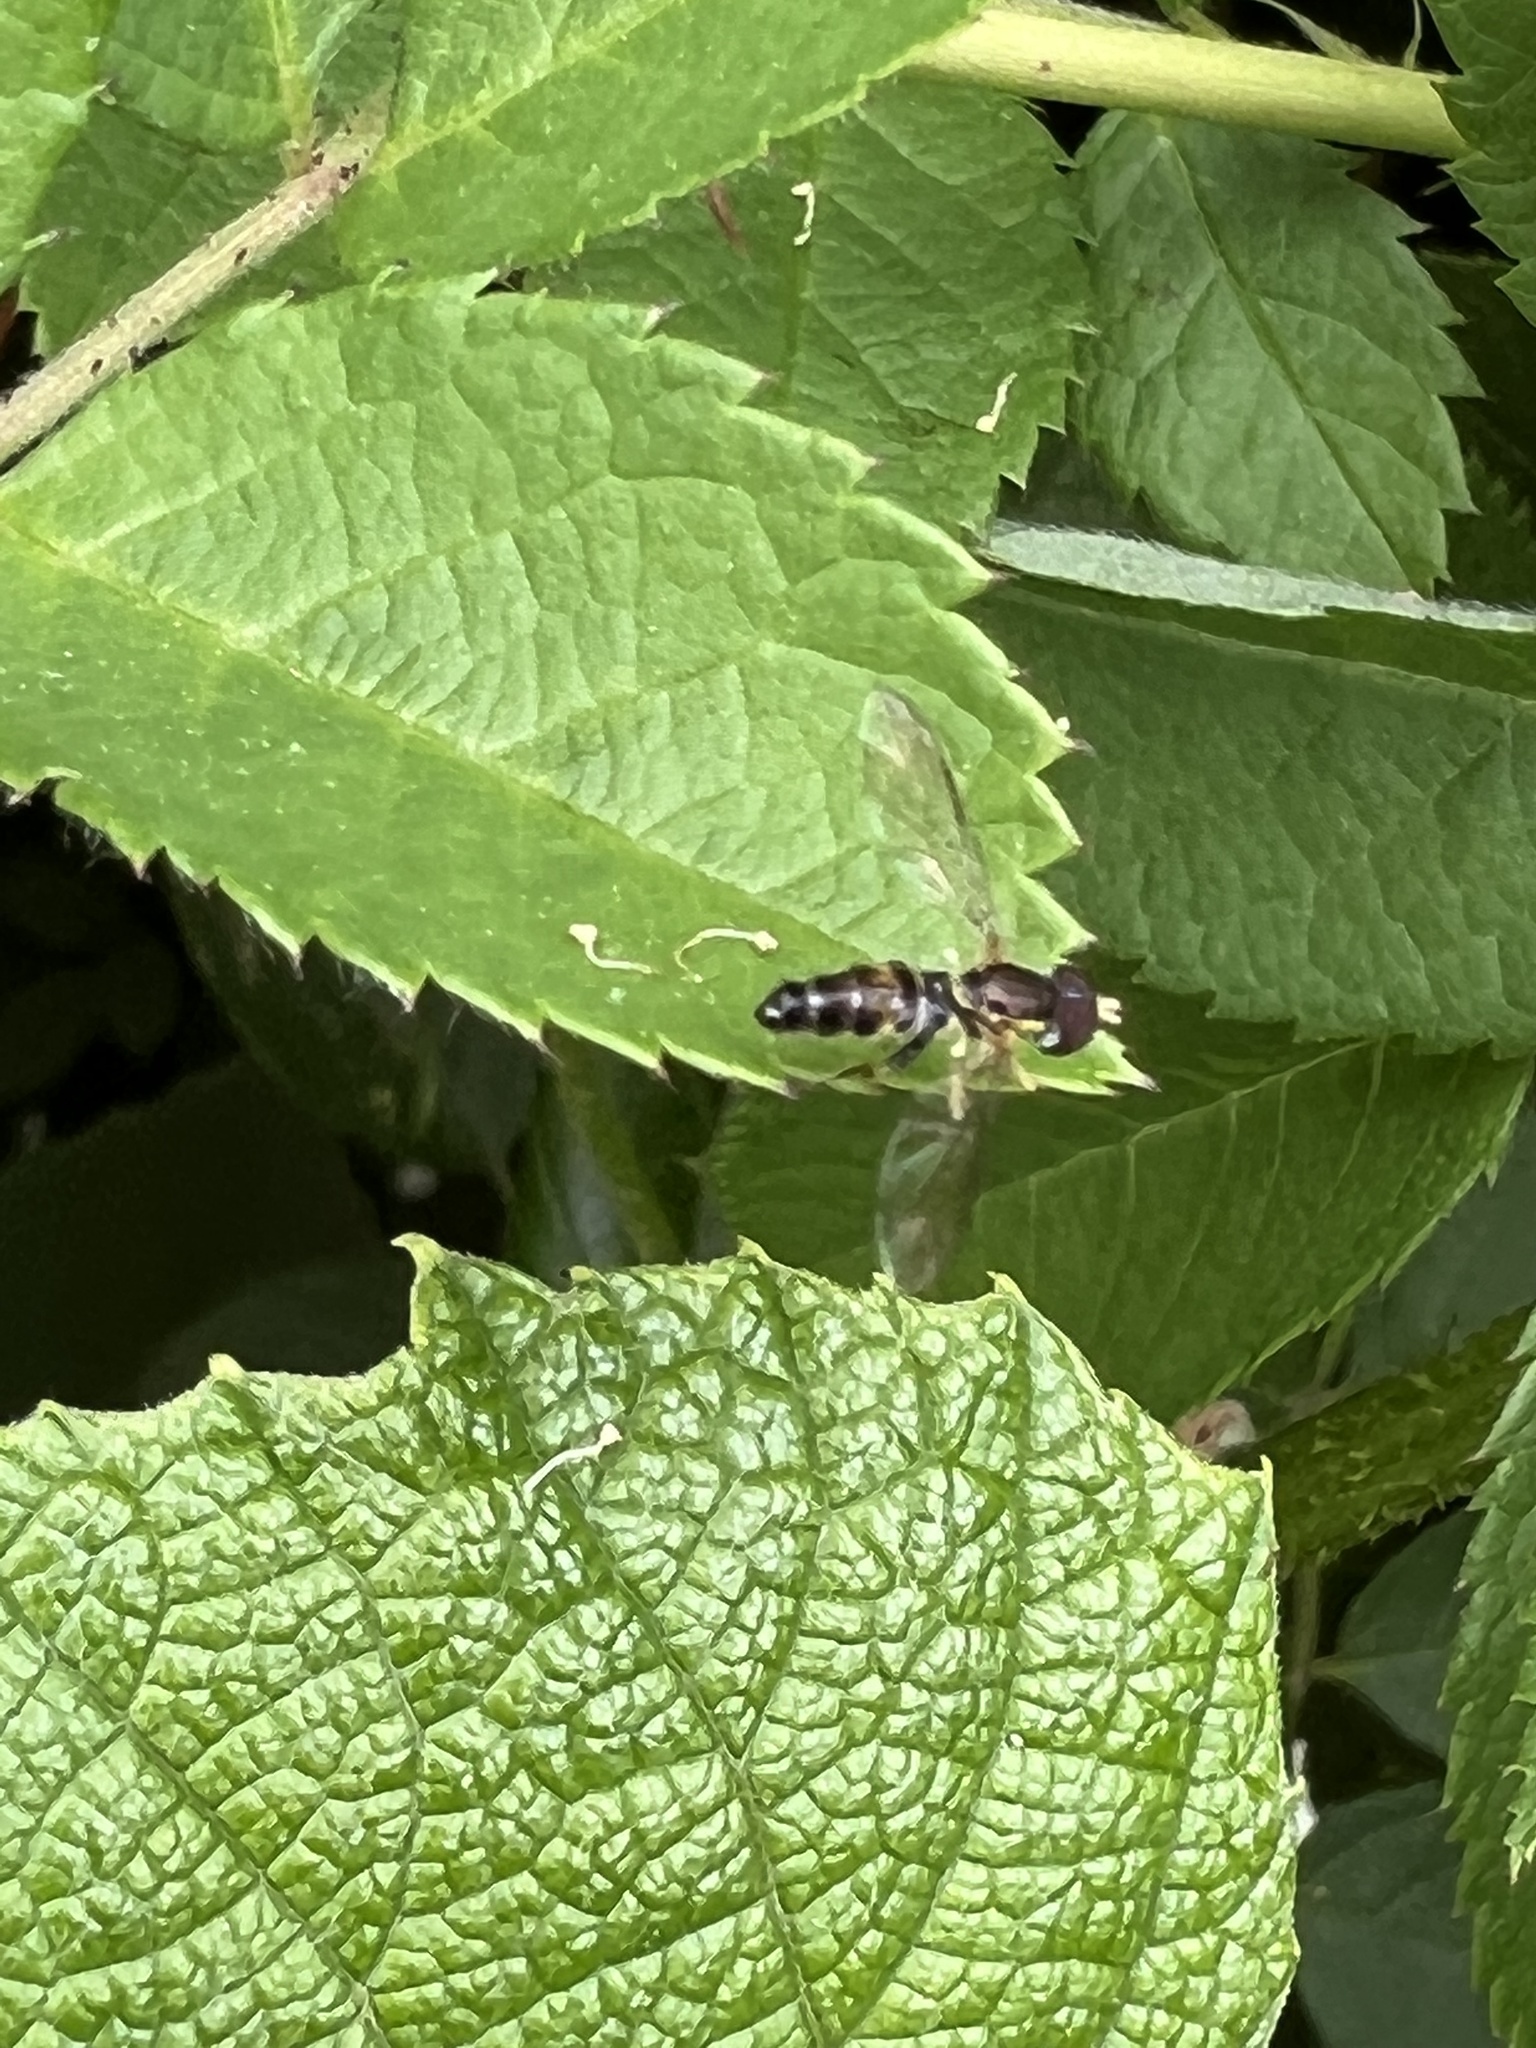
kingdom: Animalia
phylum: Arthropoda
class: Insecta
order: Diptera
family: Syrphidae
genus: Toxomerus
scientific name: Toxomerus geminatus
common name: Eastern calligrapher
